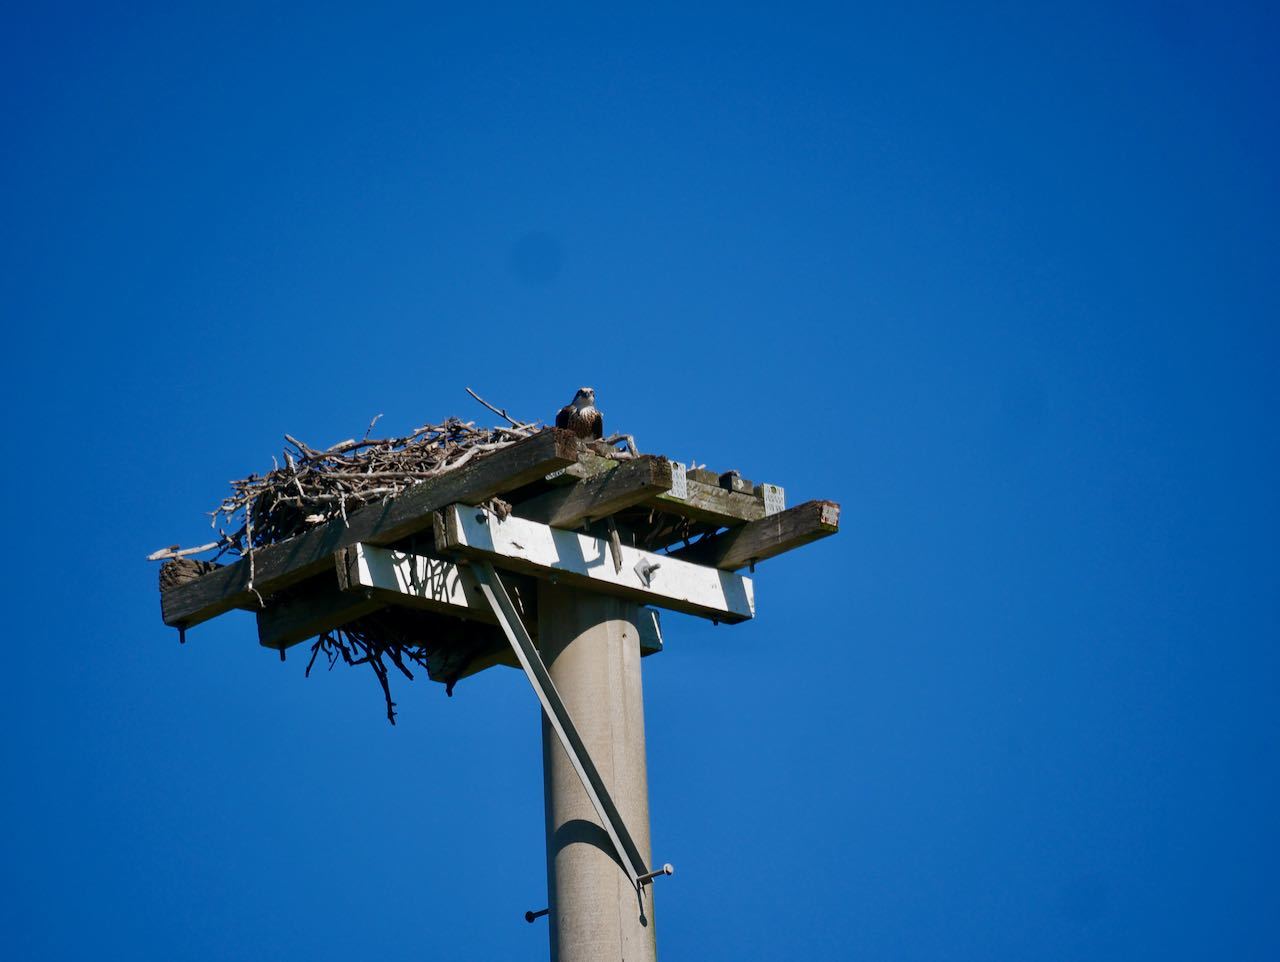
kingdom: Animalia
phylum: Chordata
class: Aves
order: Accipitriformes
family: Pandionidae
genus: Pandion
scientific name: Pandion haliaetus
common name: Osprey
